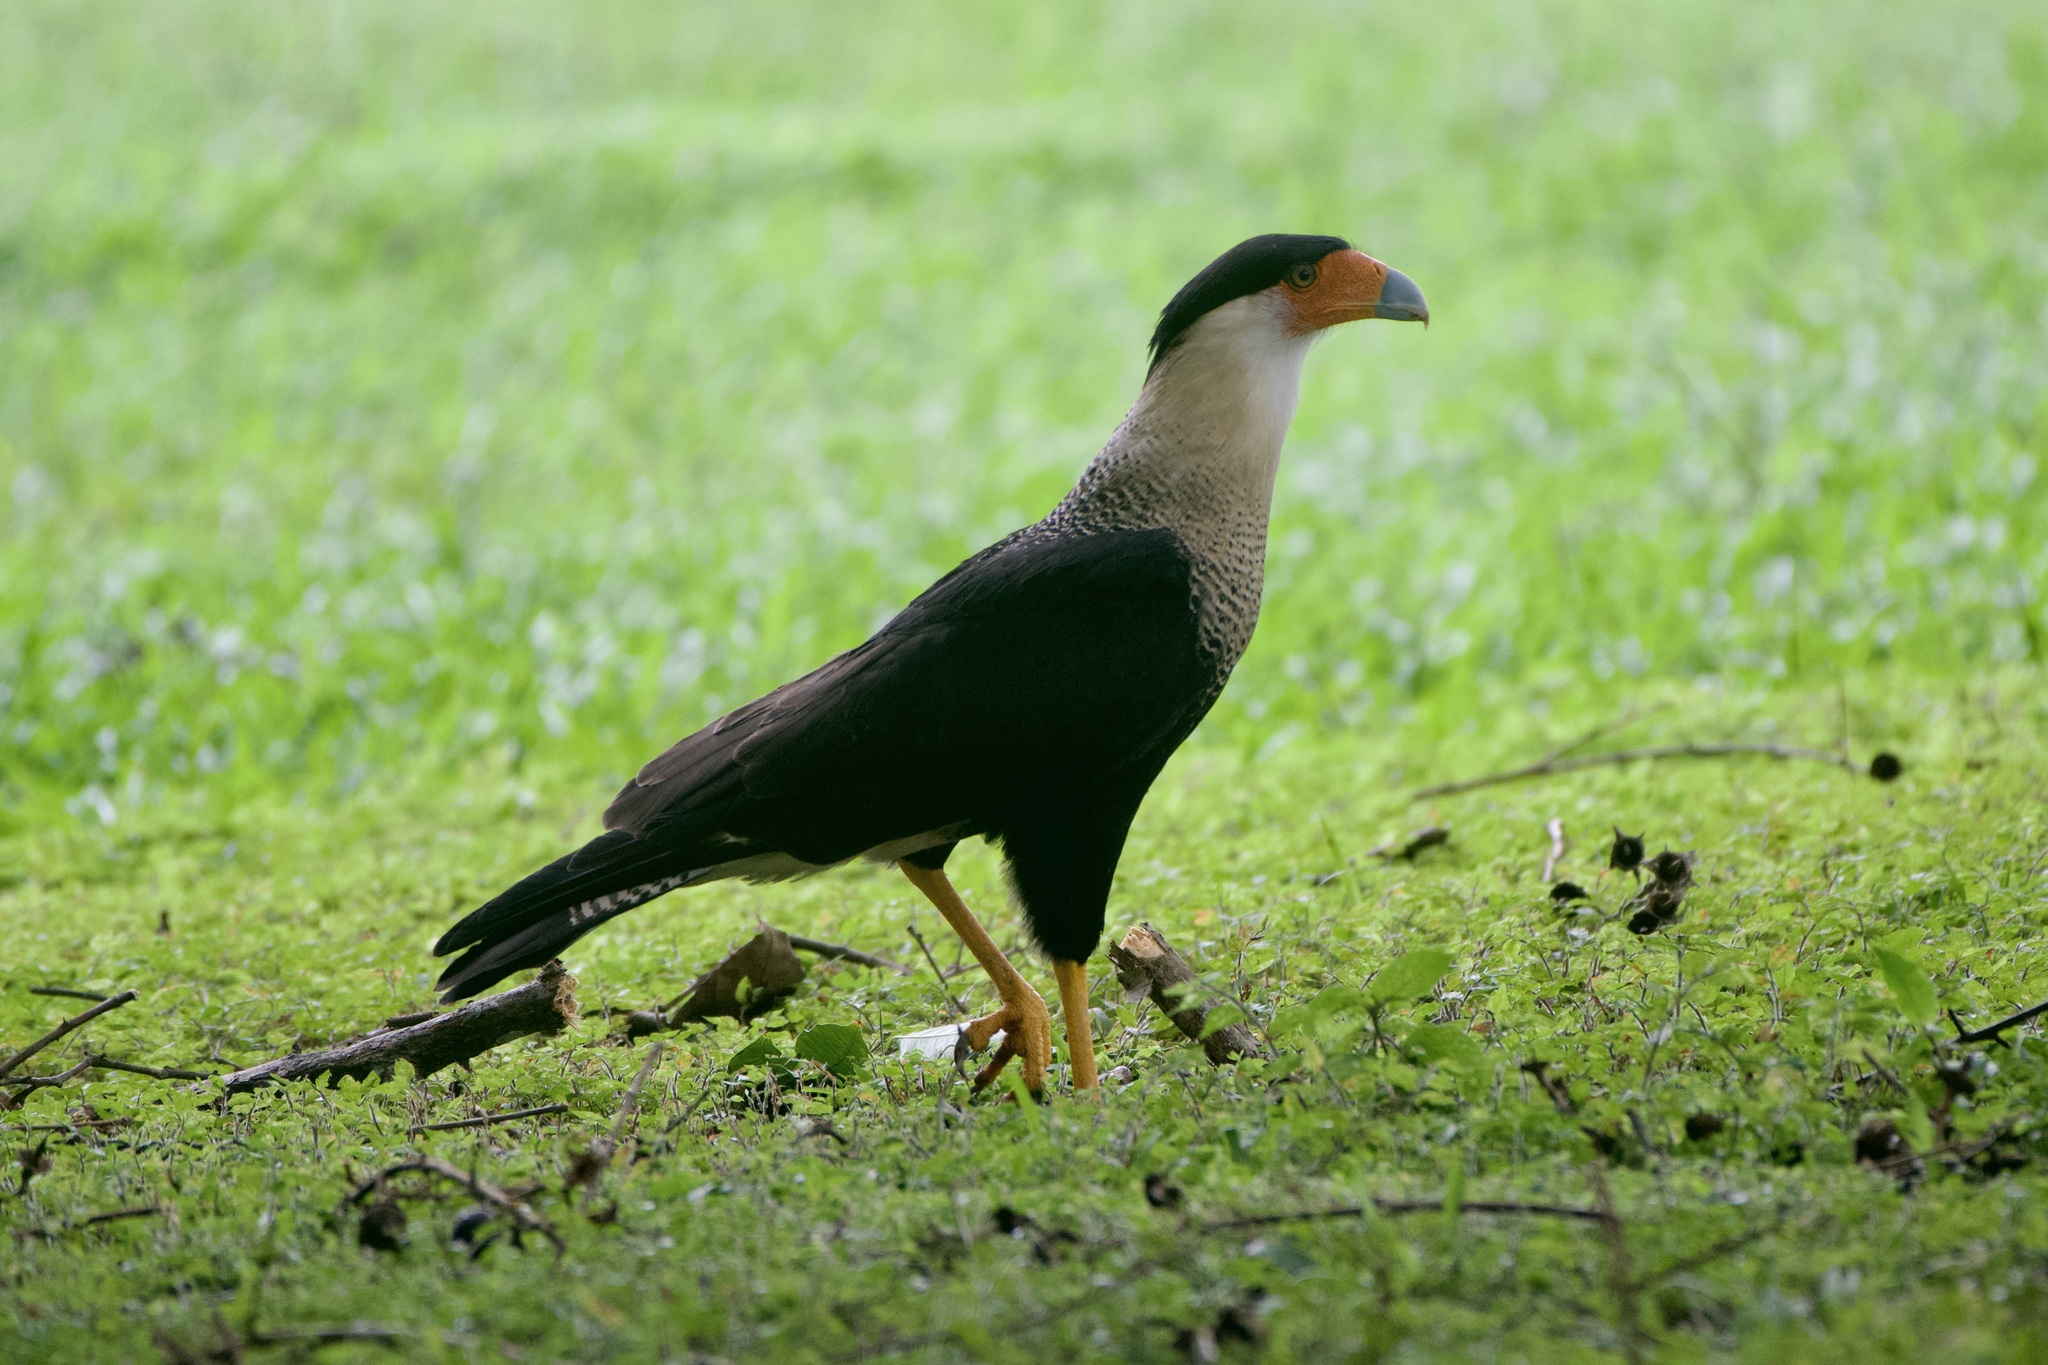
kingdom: Animalia
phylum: Chordata
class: Aves
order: Falconiformes
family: Falconidae
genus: Caracara
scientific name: Caracara plancus
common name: Southern caracara
